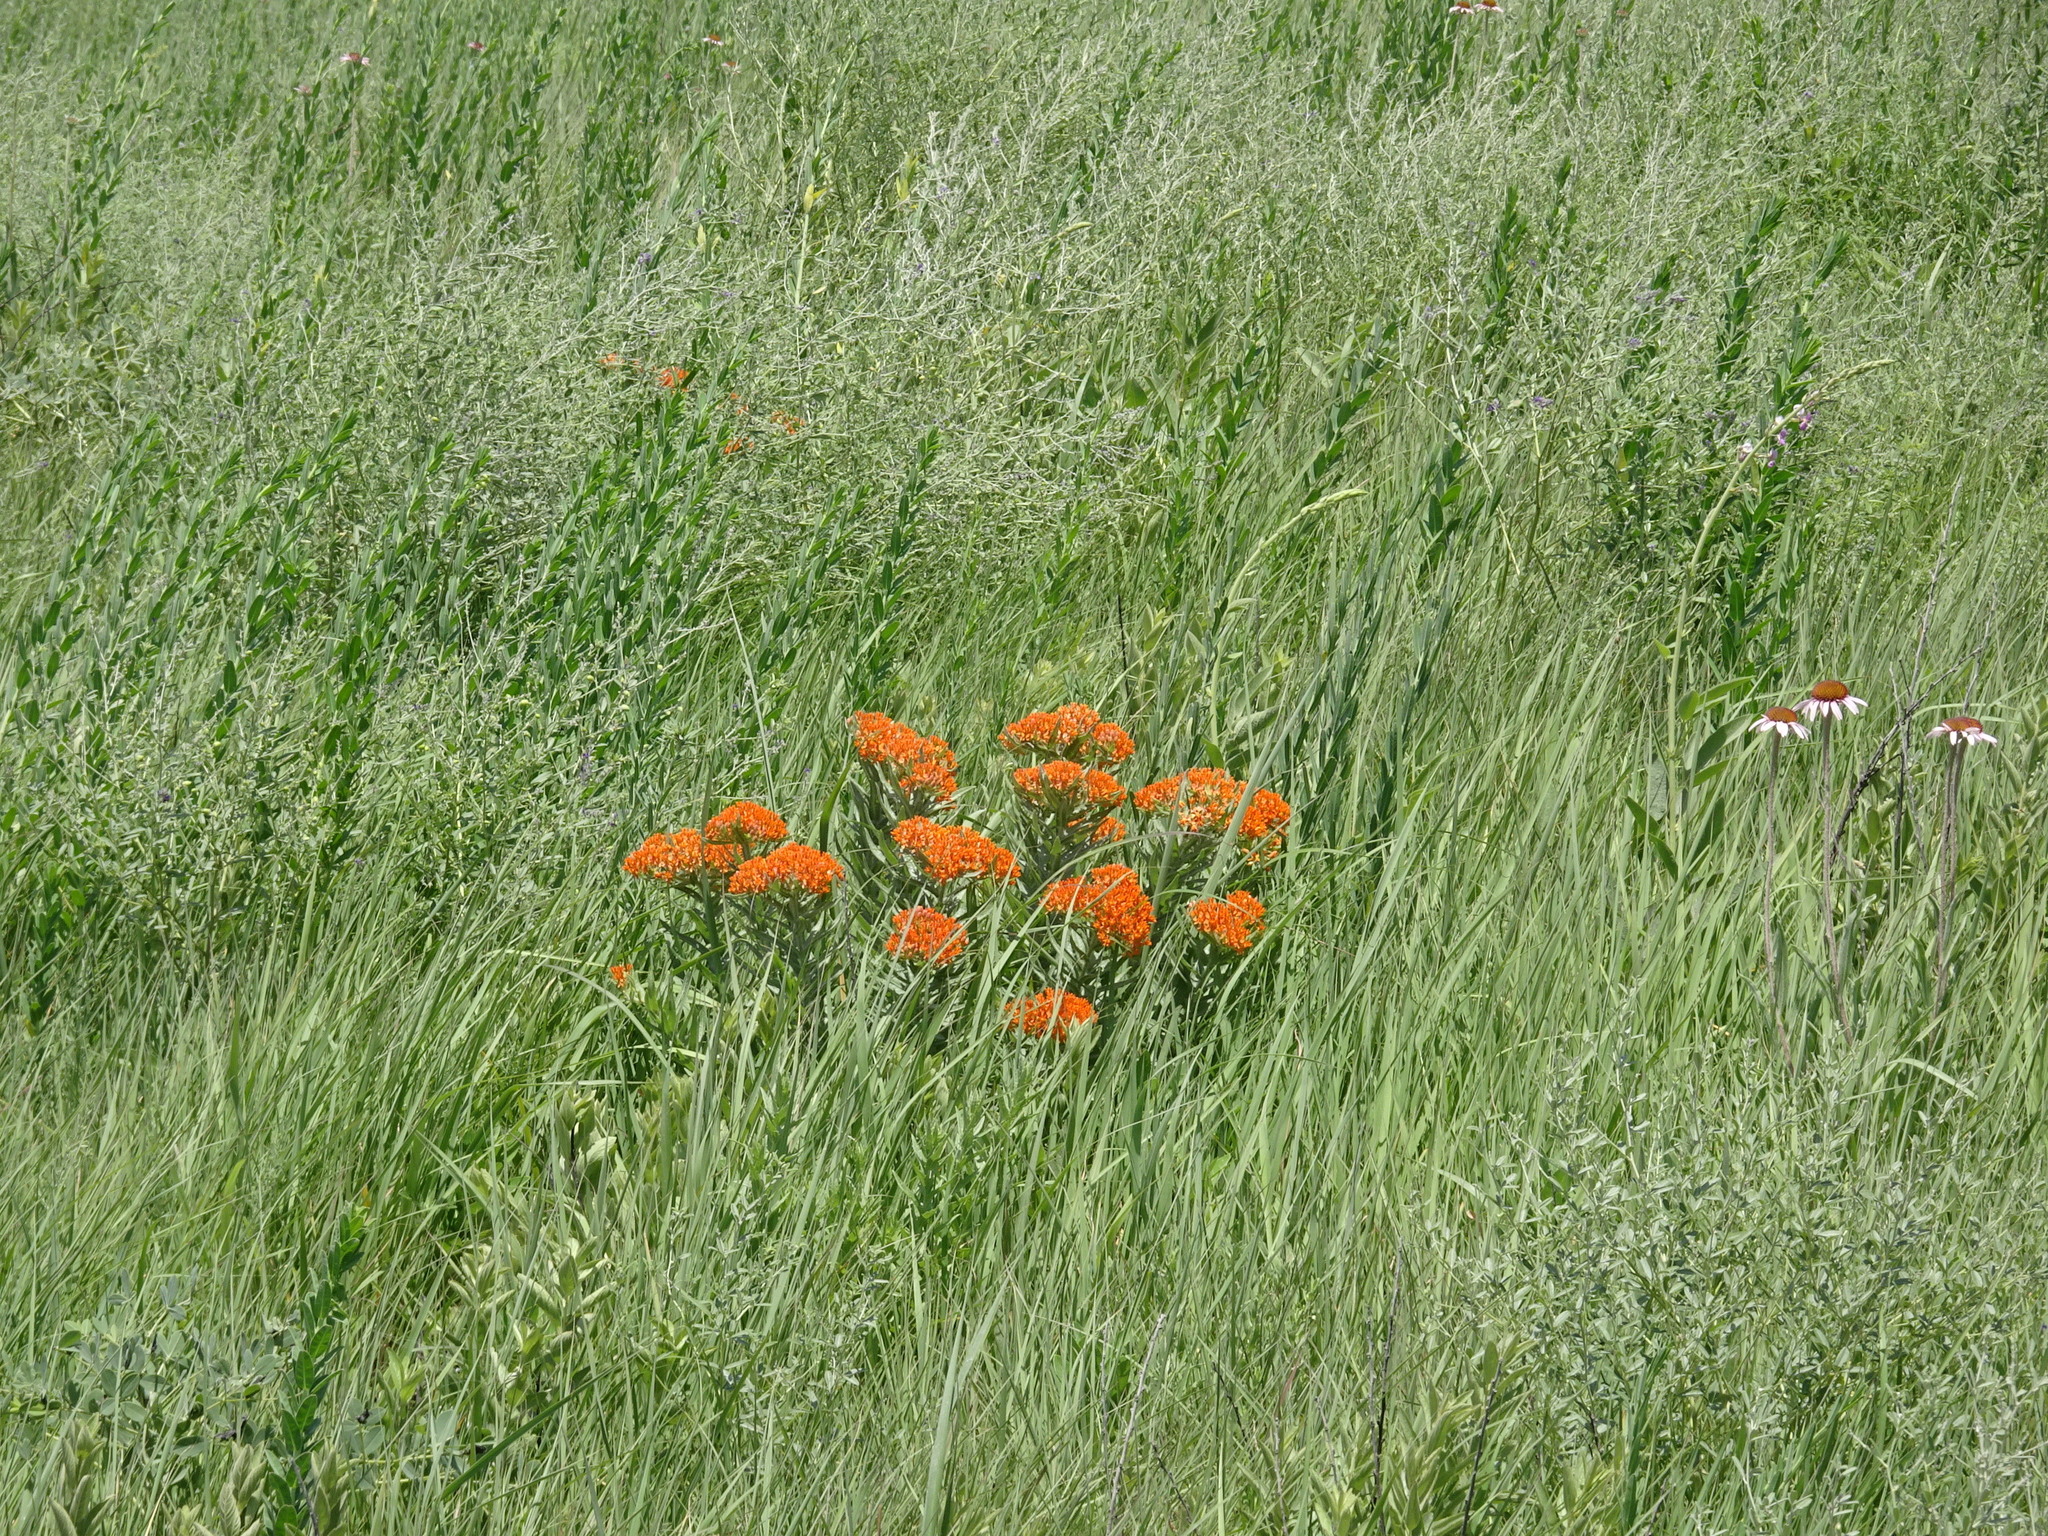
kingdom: Plantae
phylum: Tracheophyta
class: Magnoliopsida
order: Gentianales
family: Apocynaceae
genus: Asclepias
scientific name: Asclepias tuberosa
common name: Butterfly milkweed
